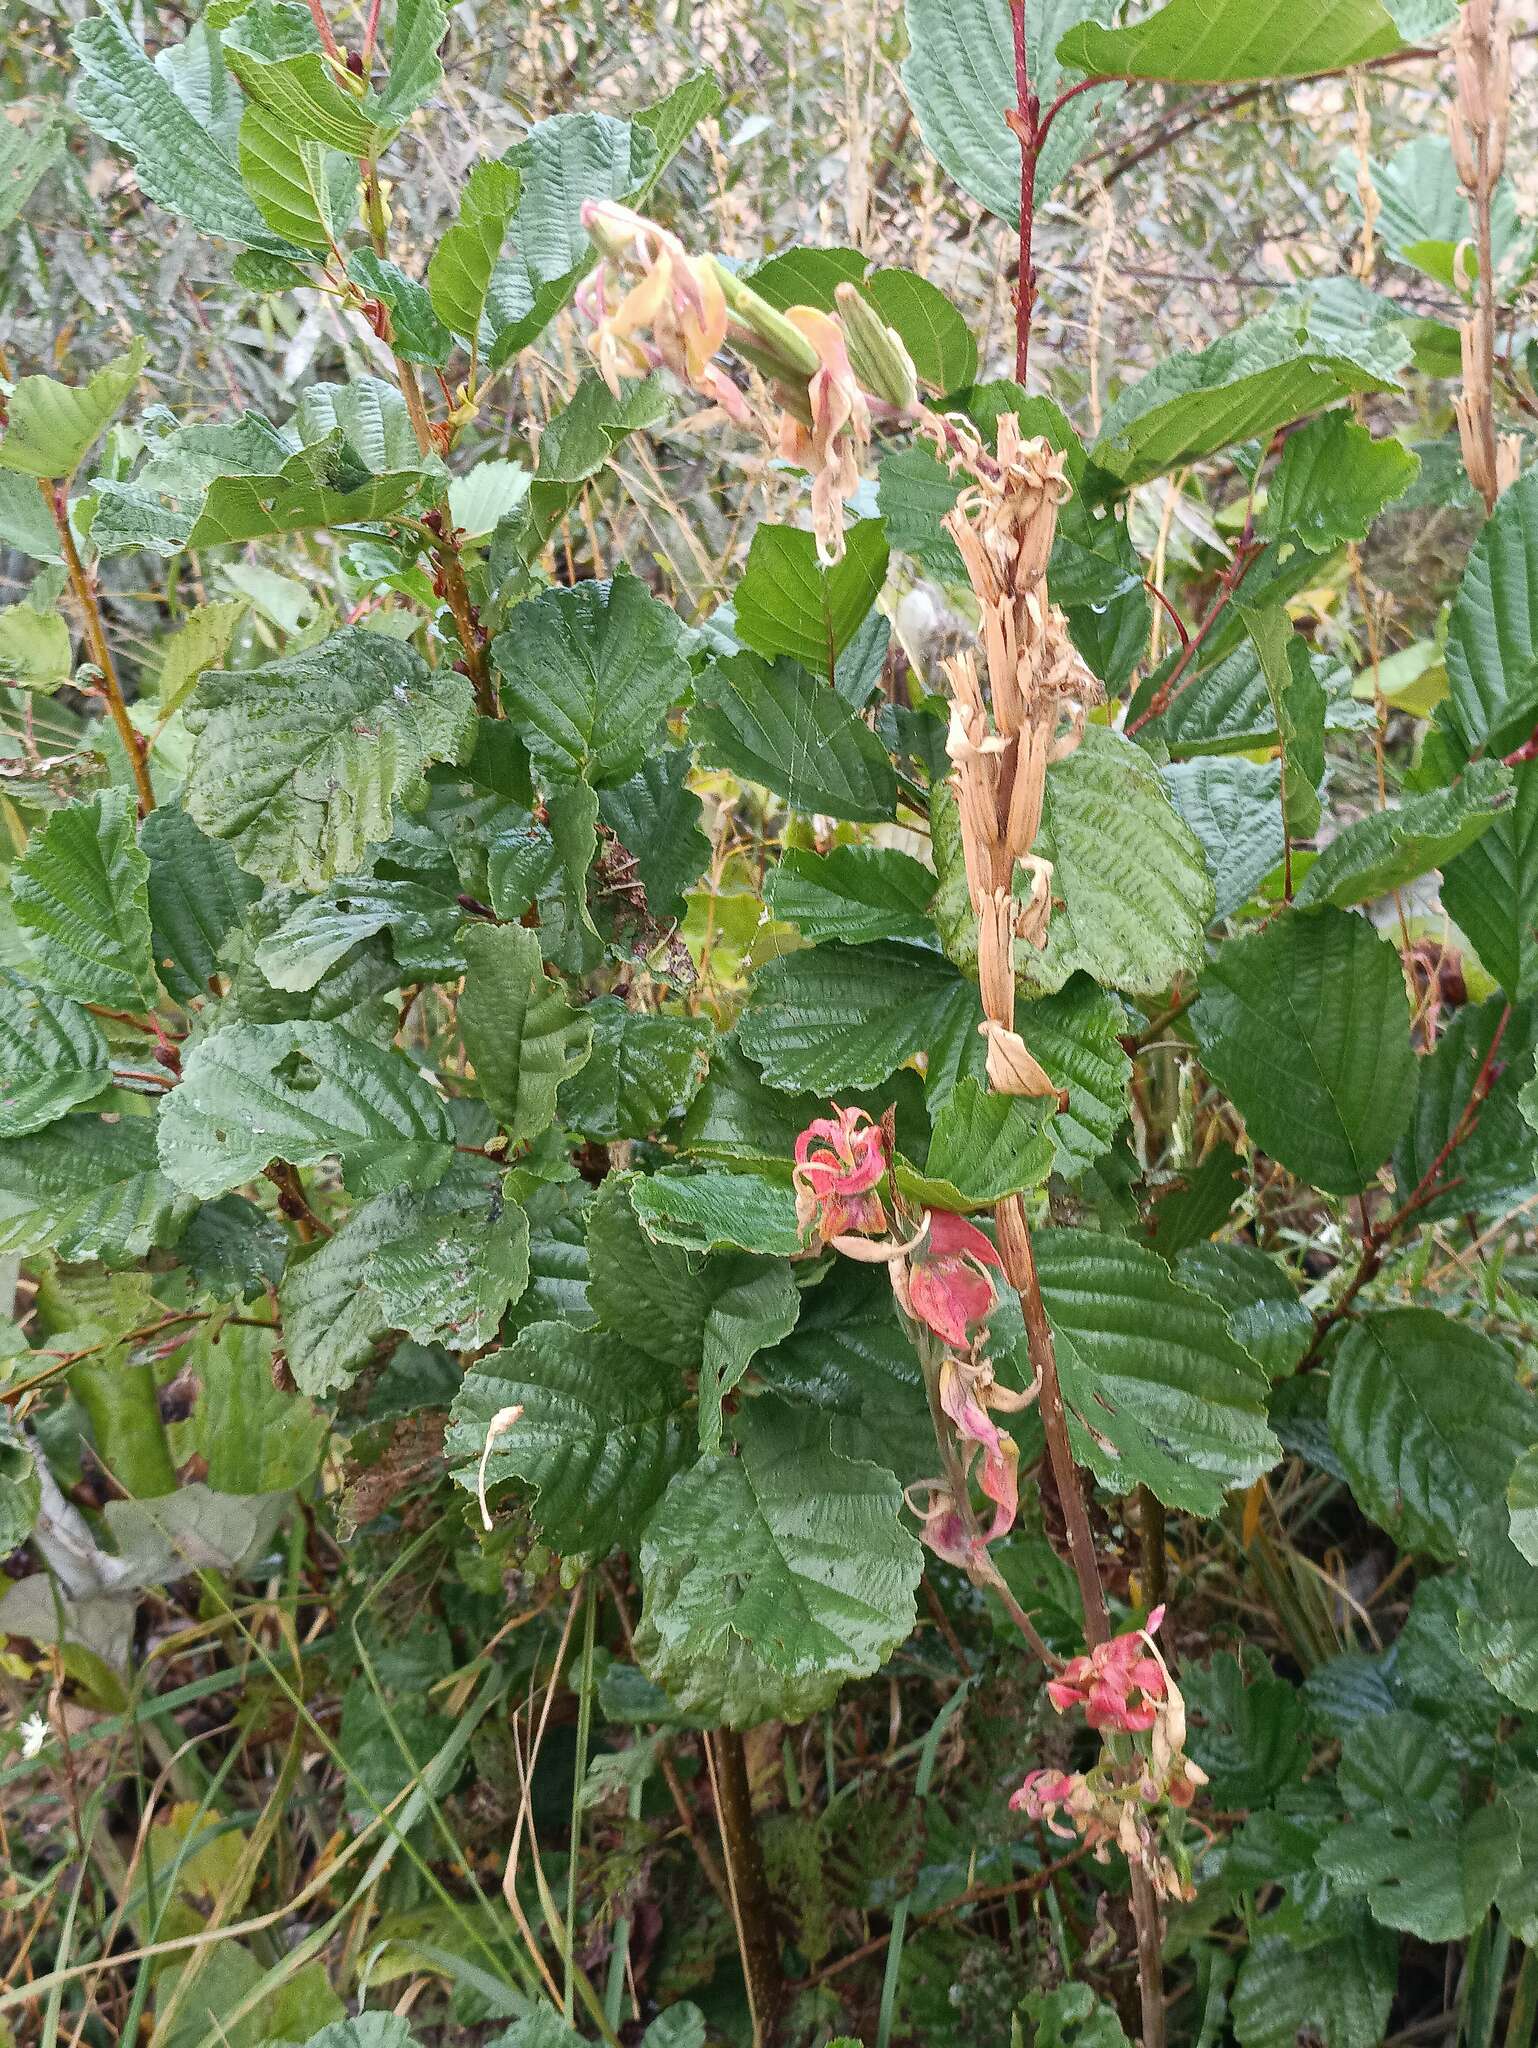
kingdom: Plantae
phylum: Tracheophyta
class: Magnoliopsida
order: Fagales
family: Betulaceae
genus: Alnus
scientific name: Alnus glutinosa
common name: Black alder
